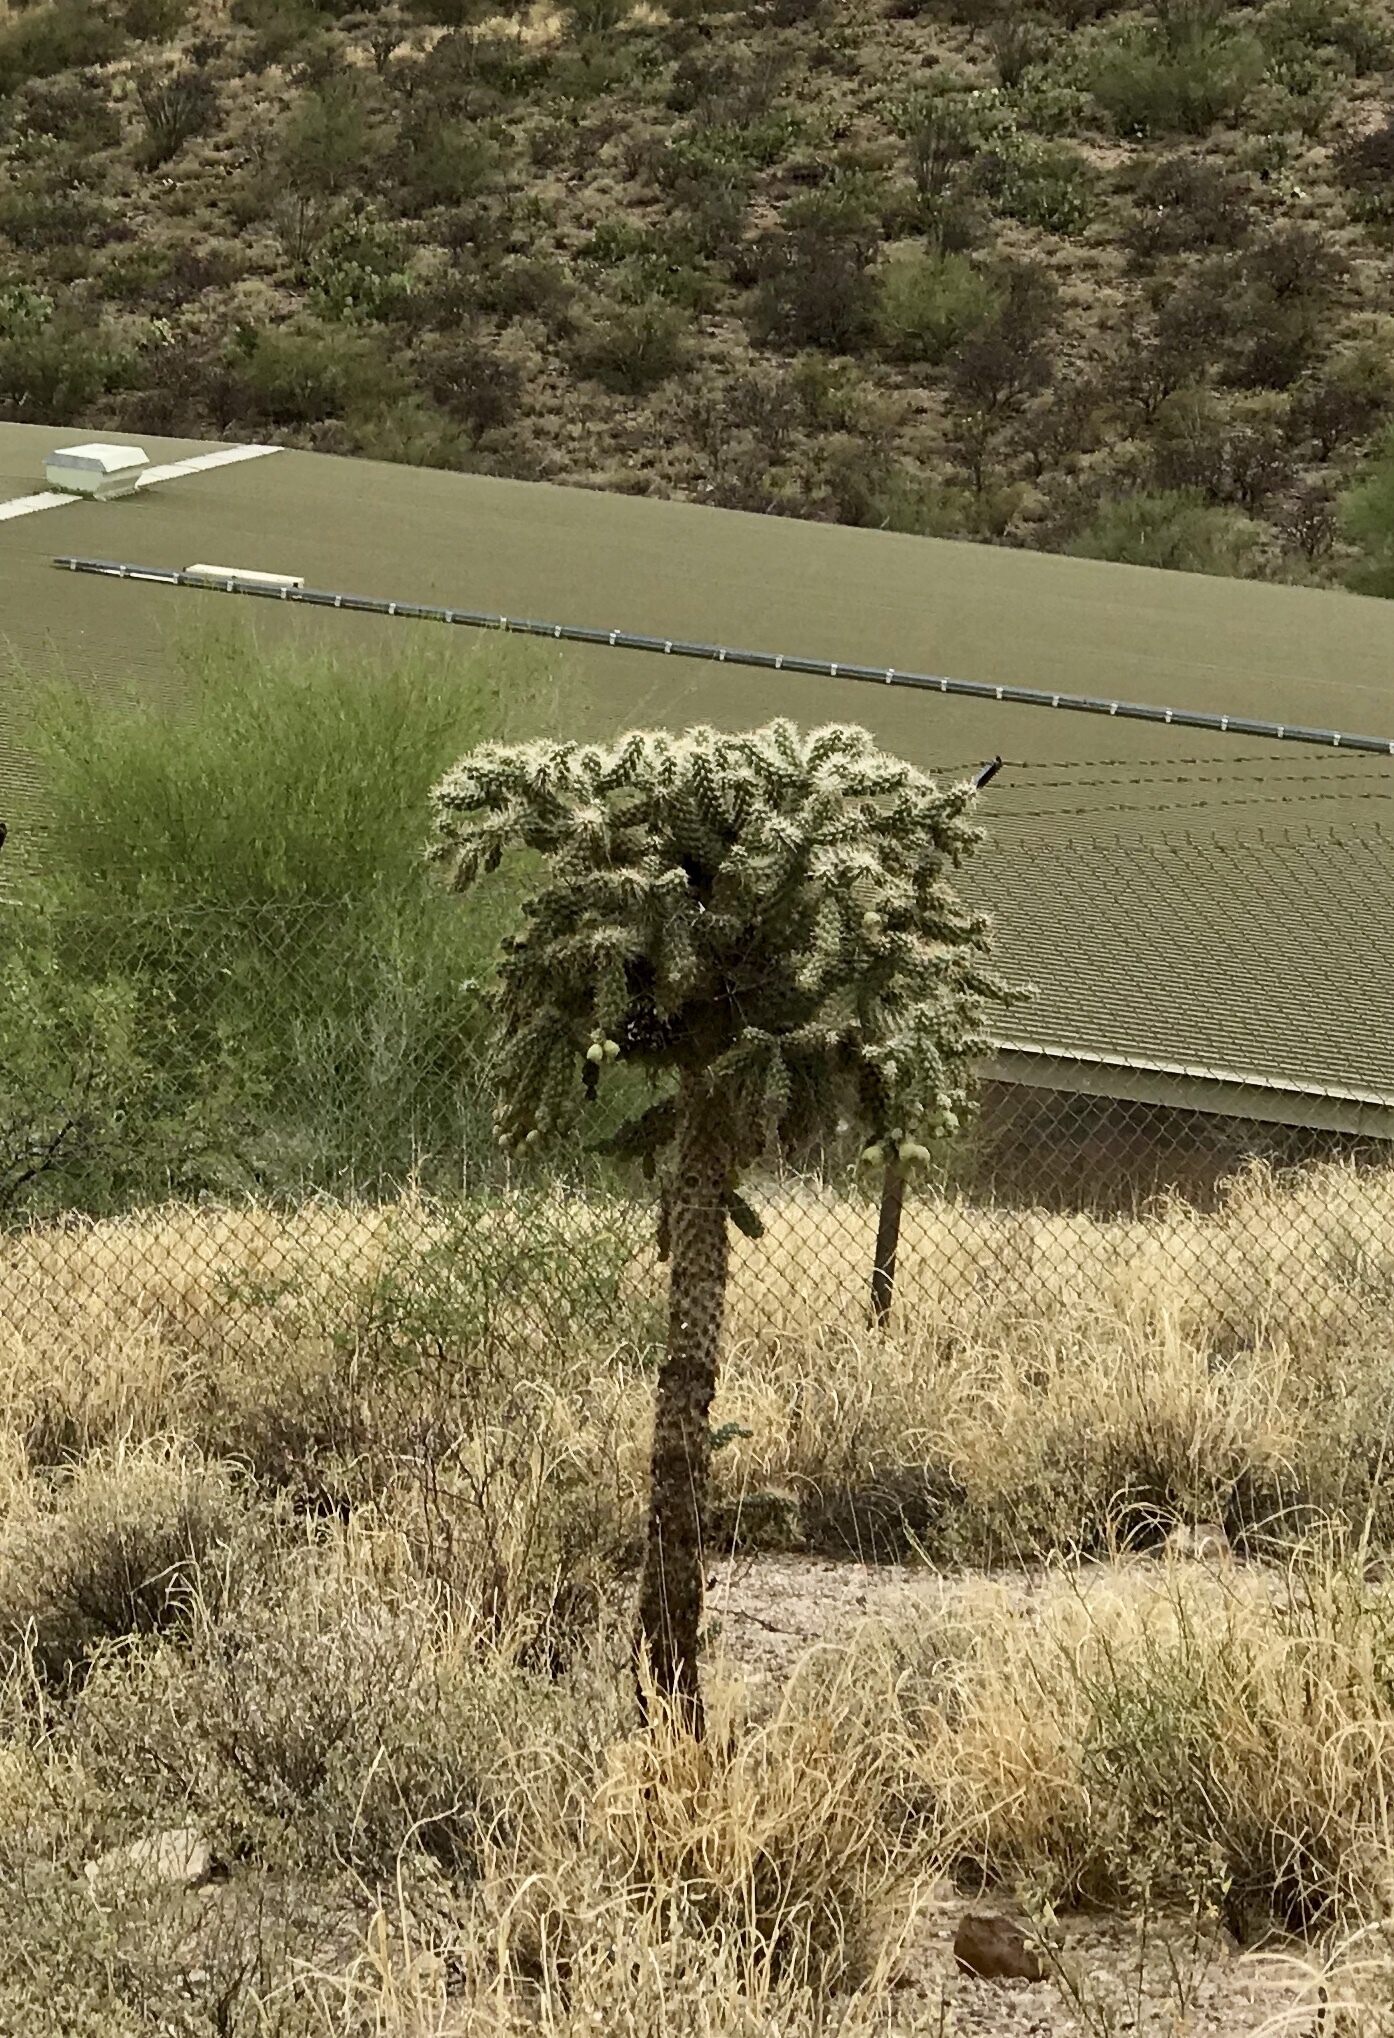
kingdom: Plantae
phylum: Tracheophyta
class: Magnoliopsida
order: Caryophyllales
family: Cactaceae
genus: Cylindropuntia
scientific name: Cylindropuntia fulgida
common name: Jumping cholla
